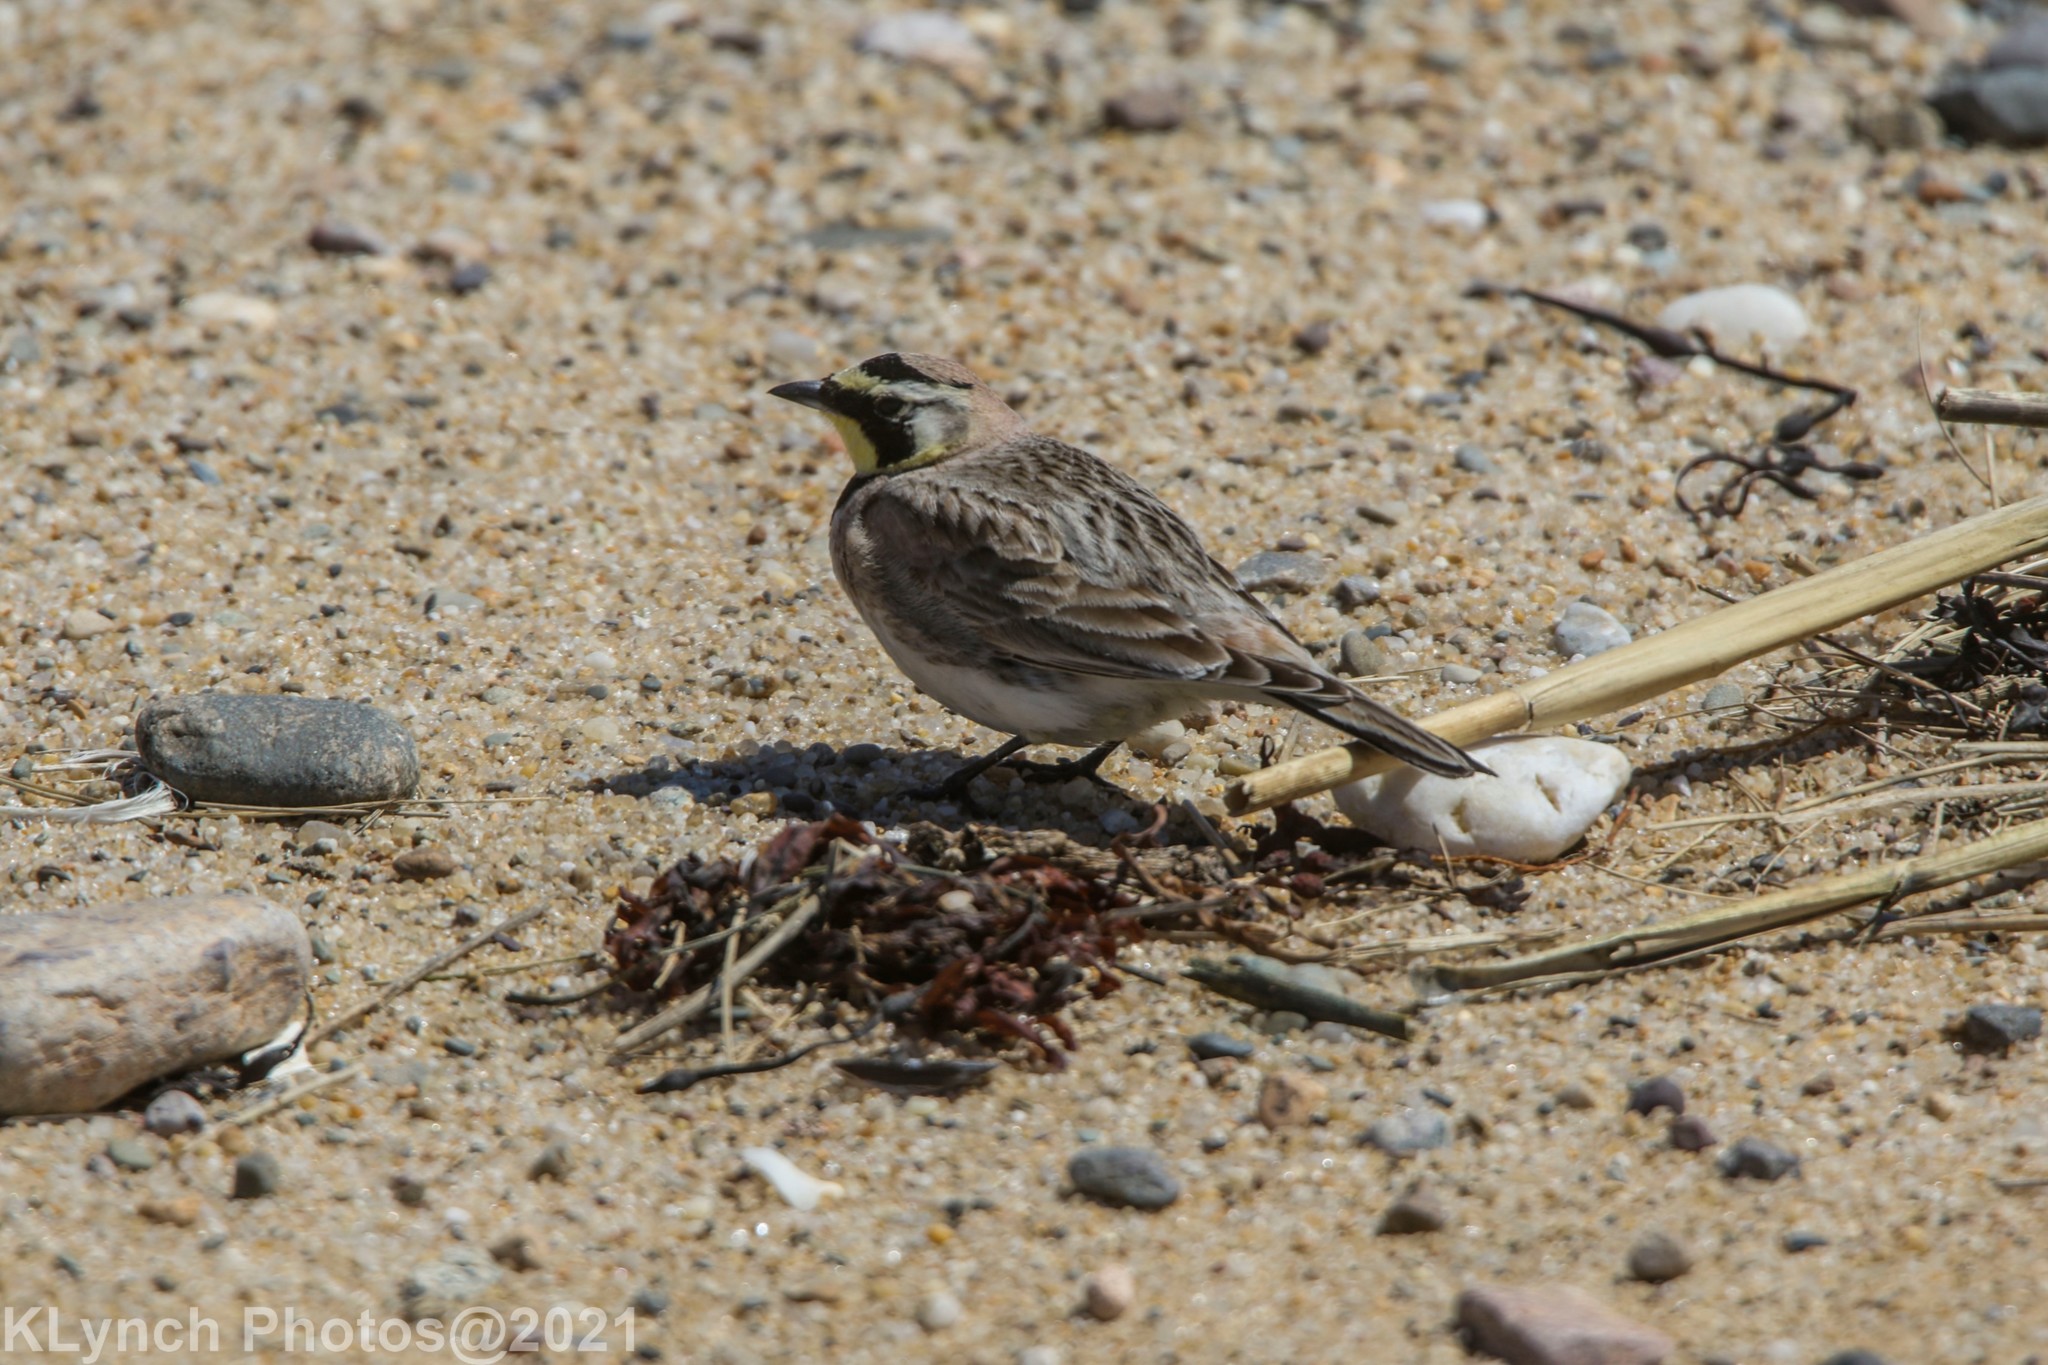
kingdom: Animalia
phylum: Chordata
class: Aves
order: Passeriformes
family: Alaudidae
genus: Eremophila
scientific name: Eremophila alpestris
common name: Horned lark
